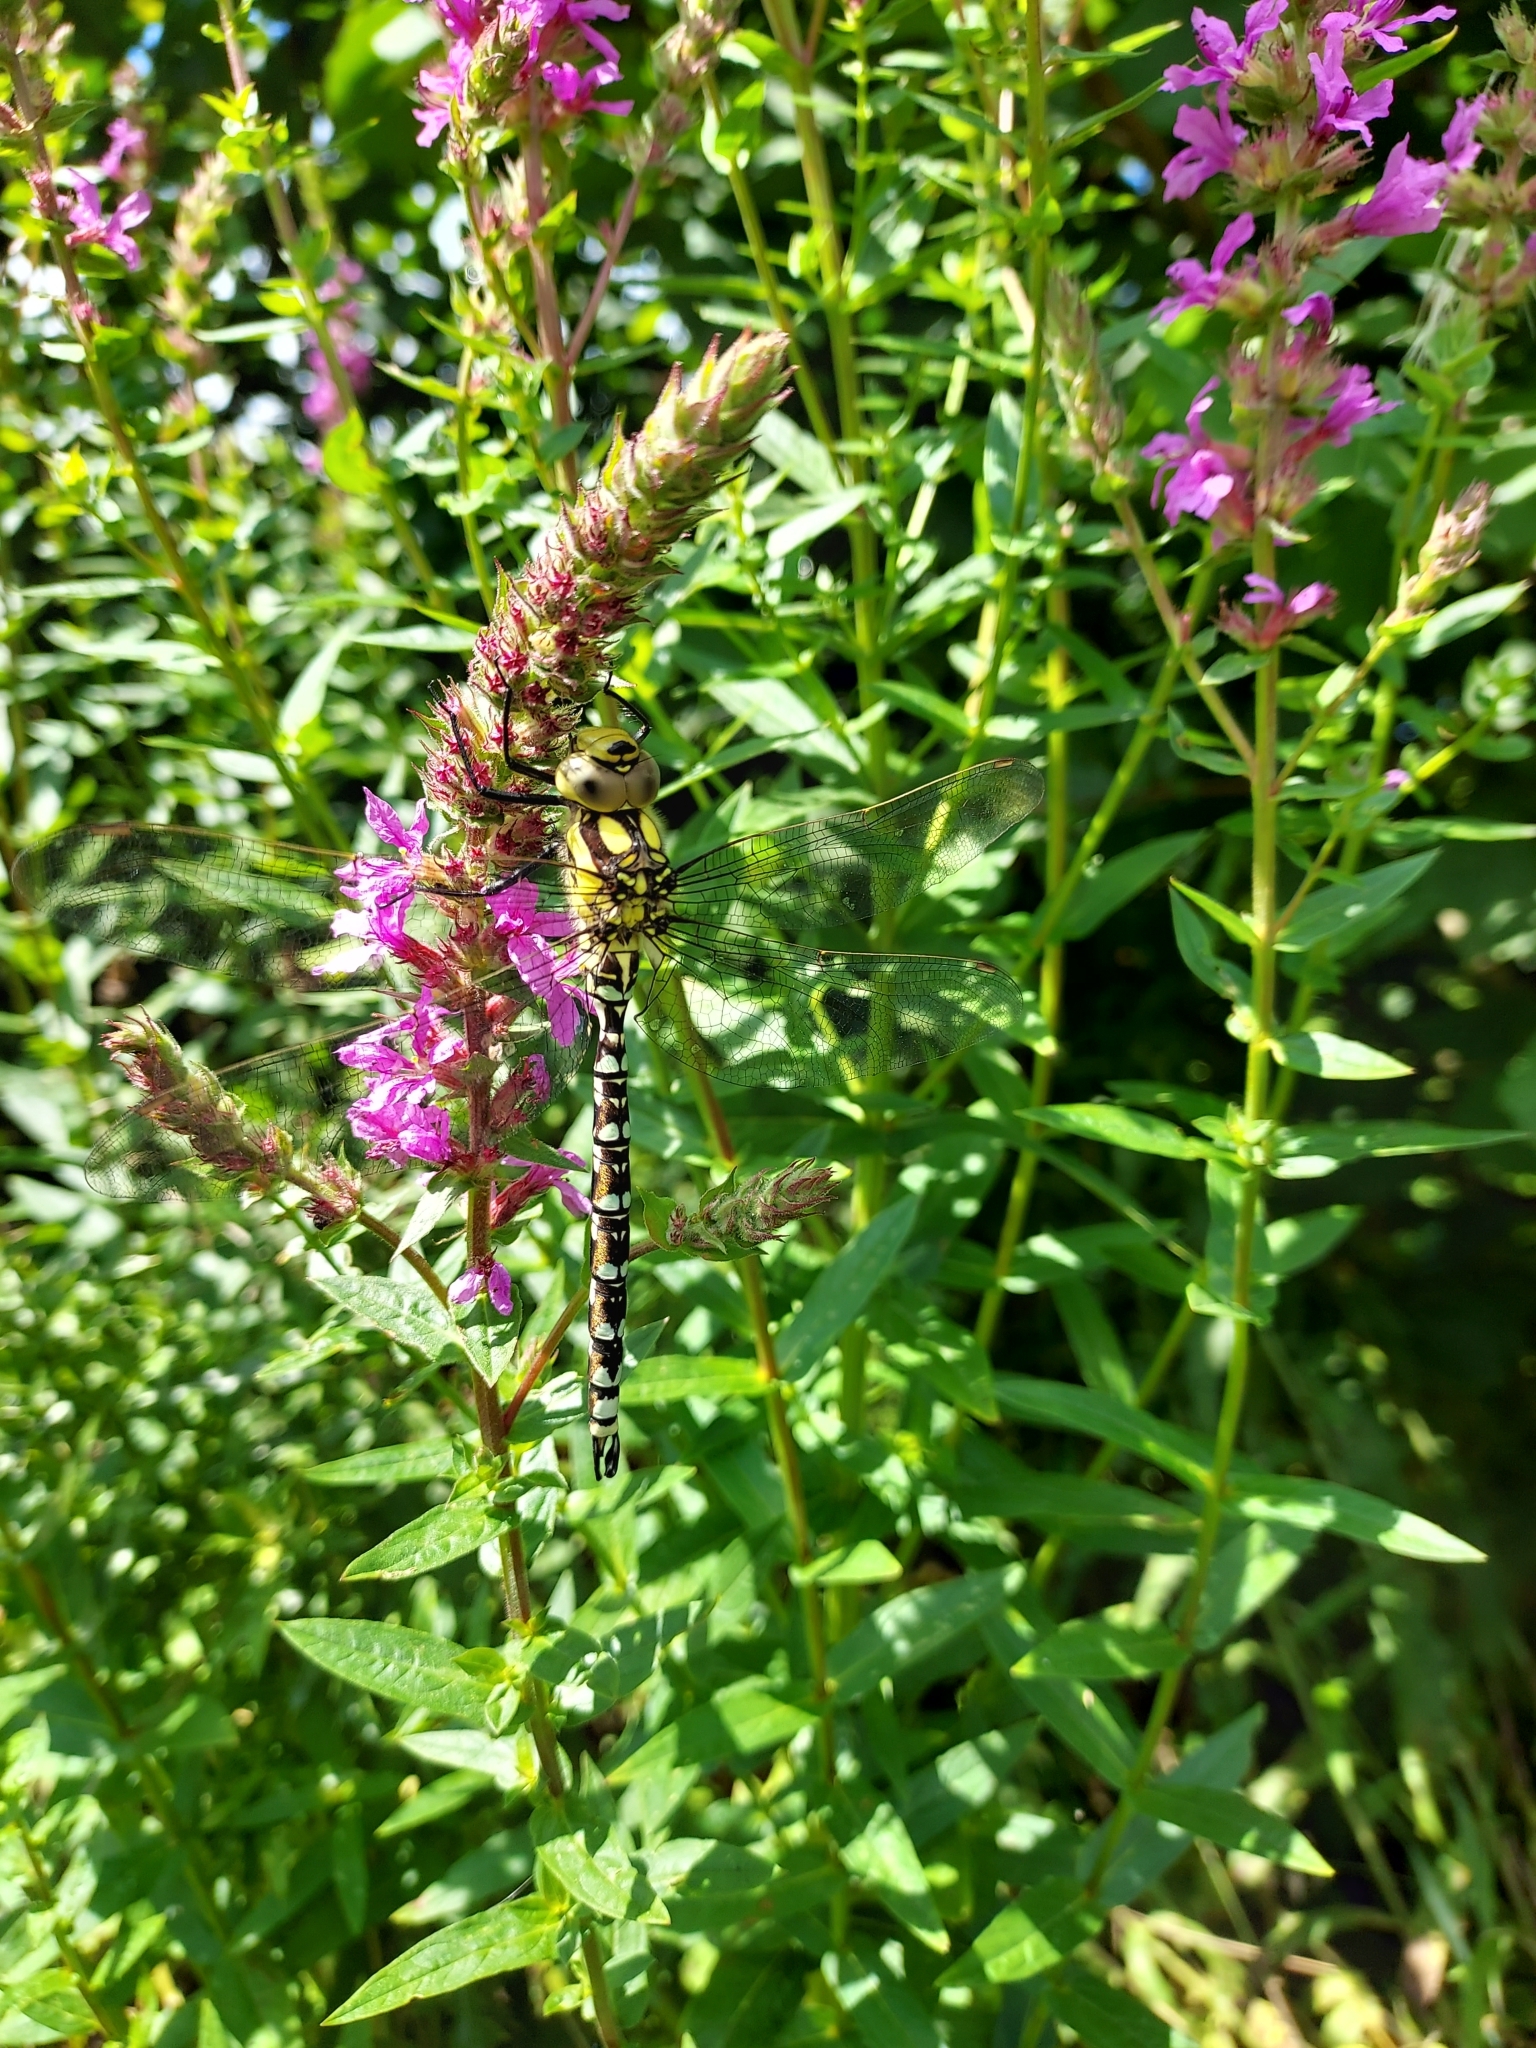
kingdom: Animalia
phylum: Arthropoda
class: Insecta
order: Odonata
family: Aeshnidae
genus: Aeshna
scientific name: Aeshna cyanea
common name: Southern hawker
